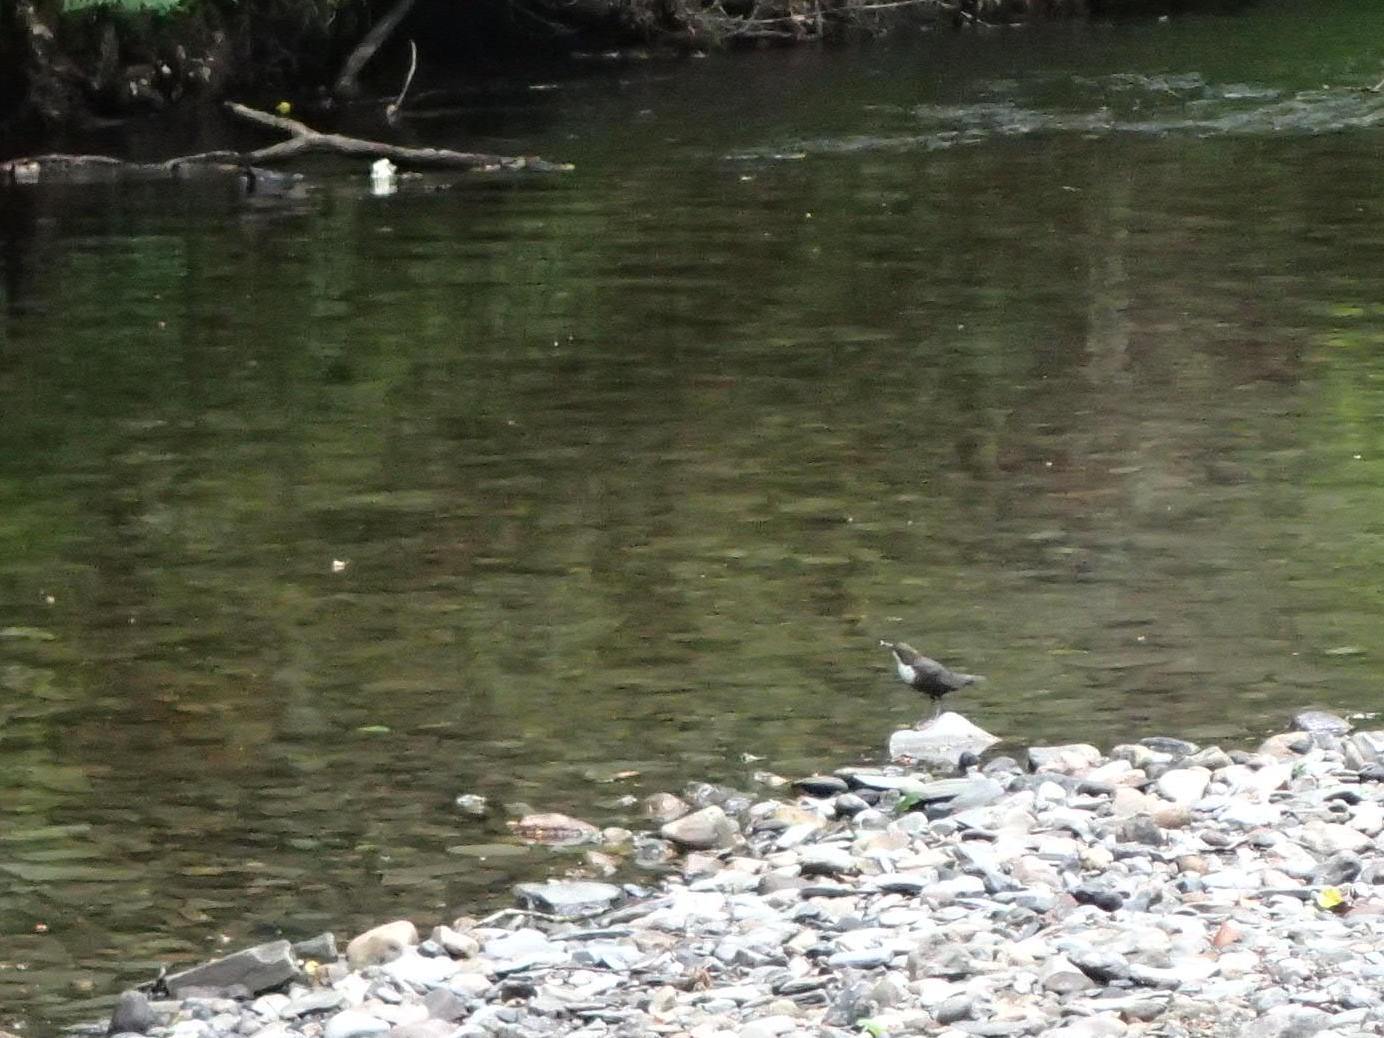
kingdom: Animalia
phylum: Chordata
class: Aves
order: Passeriformes
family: Cinclidae
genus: Cinclus
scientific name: Cinclus cinclus
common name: White-throated dipper
